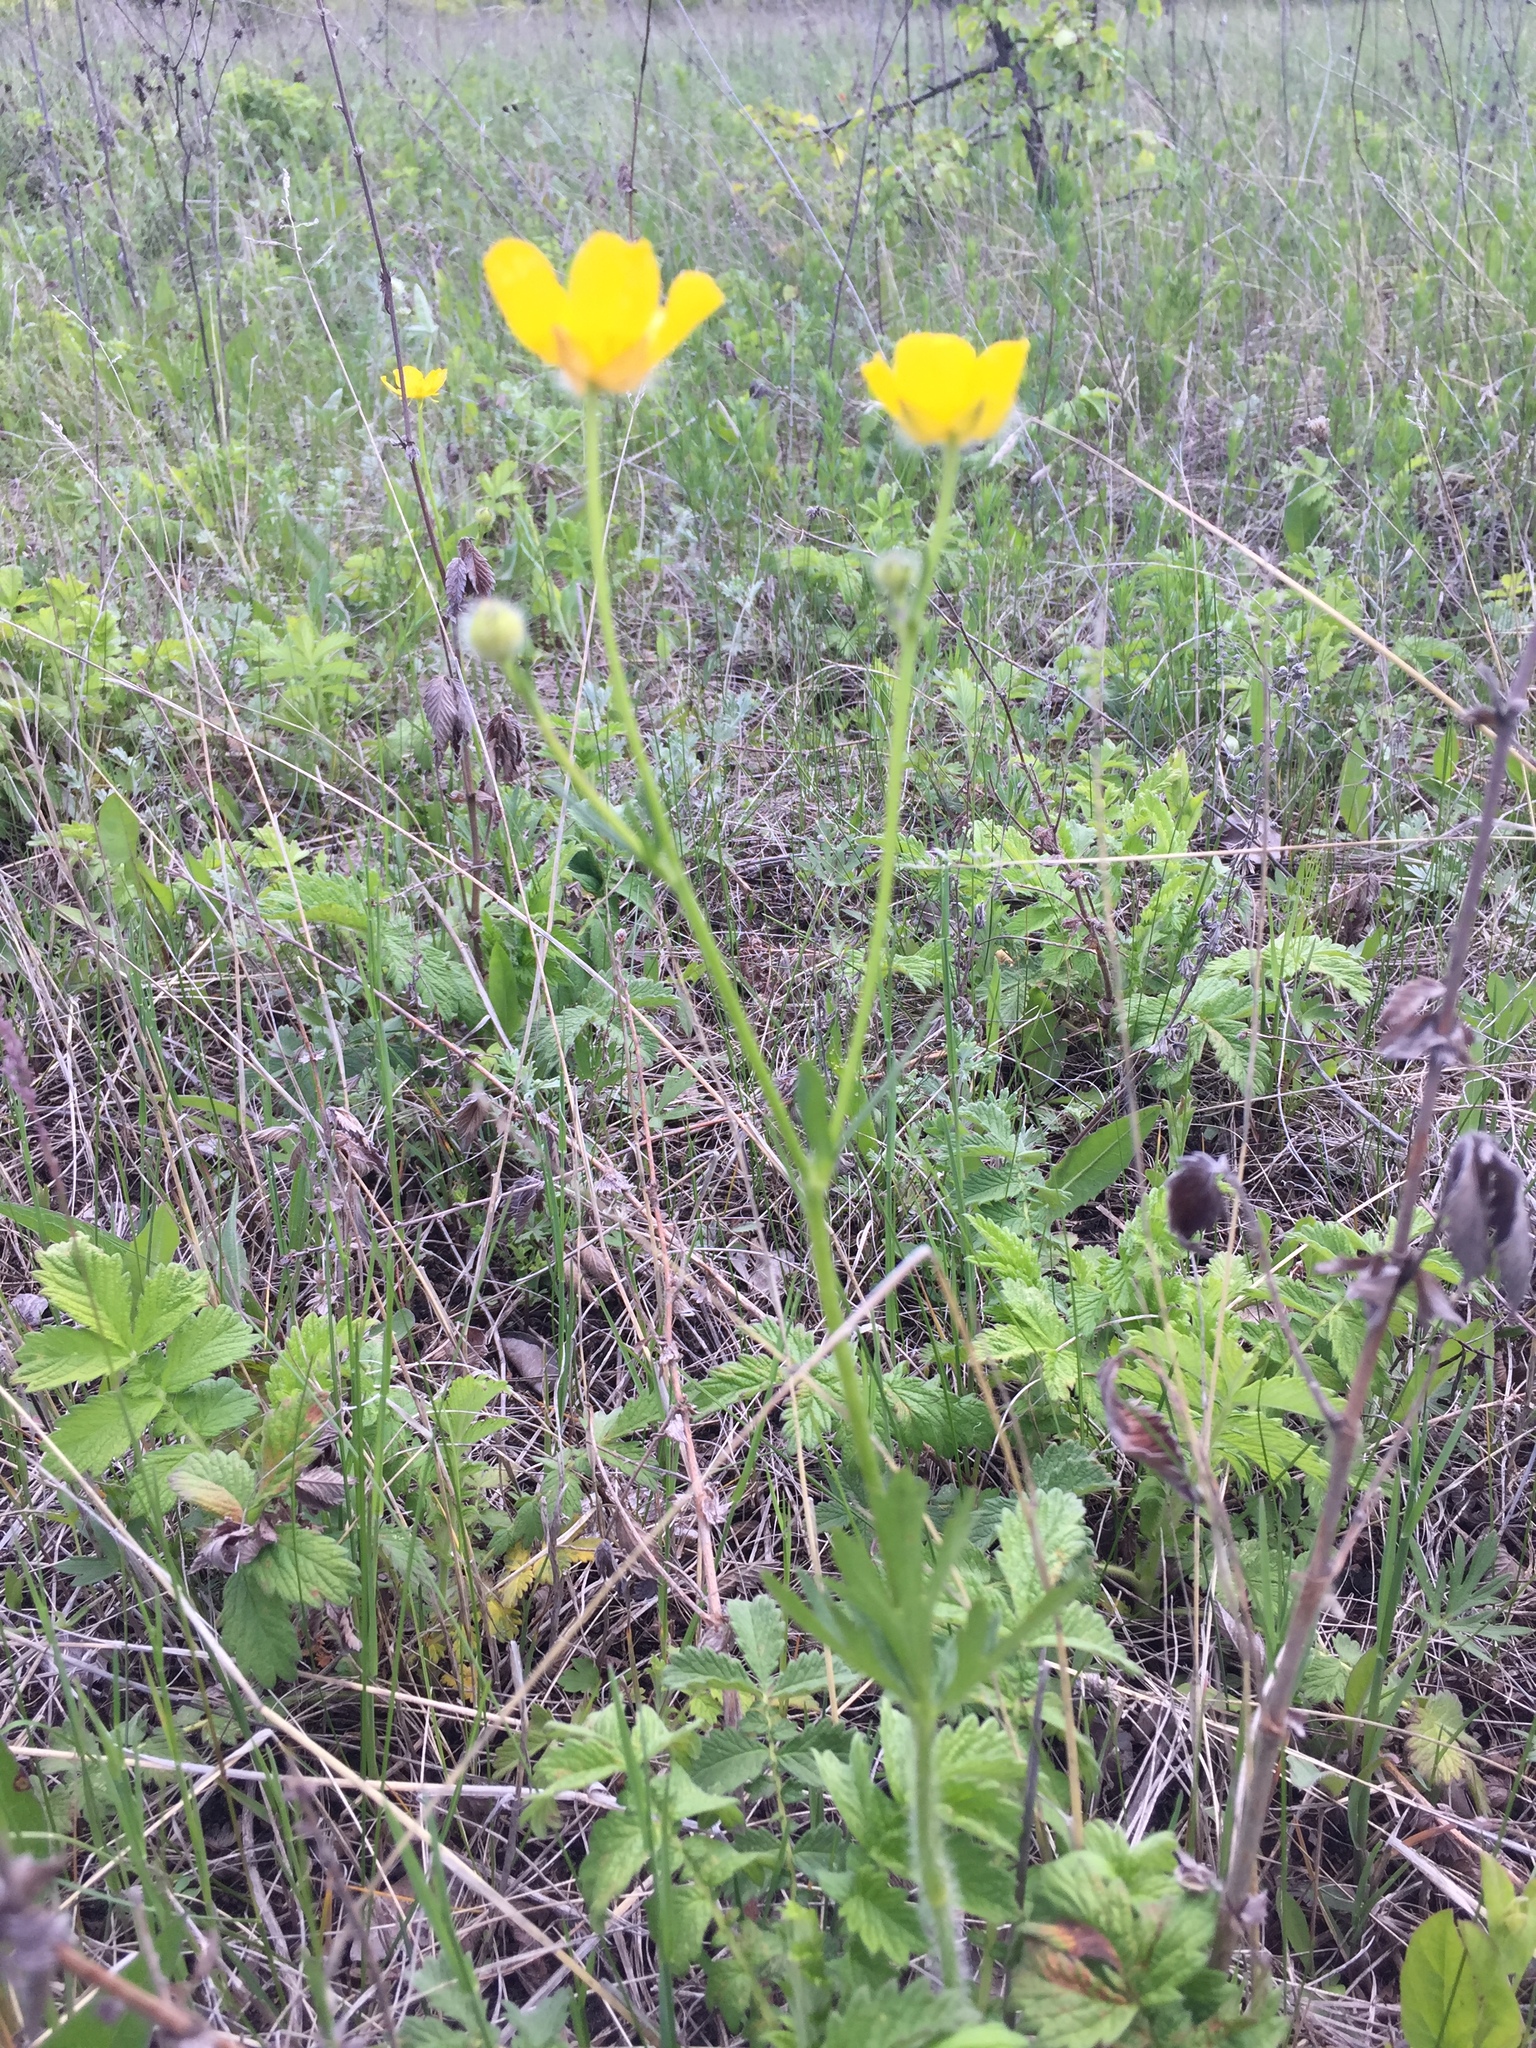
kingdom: Plantae
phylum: Tracheophyta
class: Magnoliopsida
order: Ranunculales
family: Ranunculaceae
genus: Ranunculus
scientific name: Ranunculus polyanthemos
